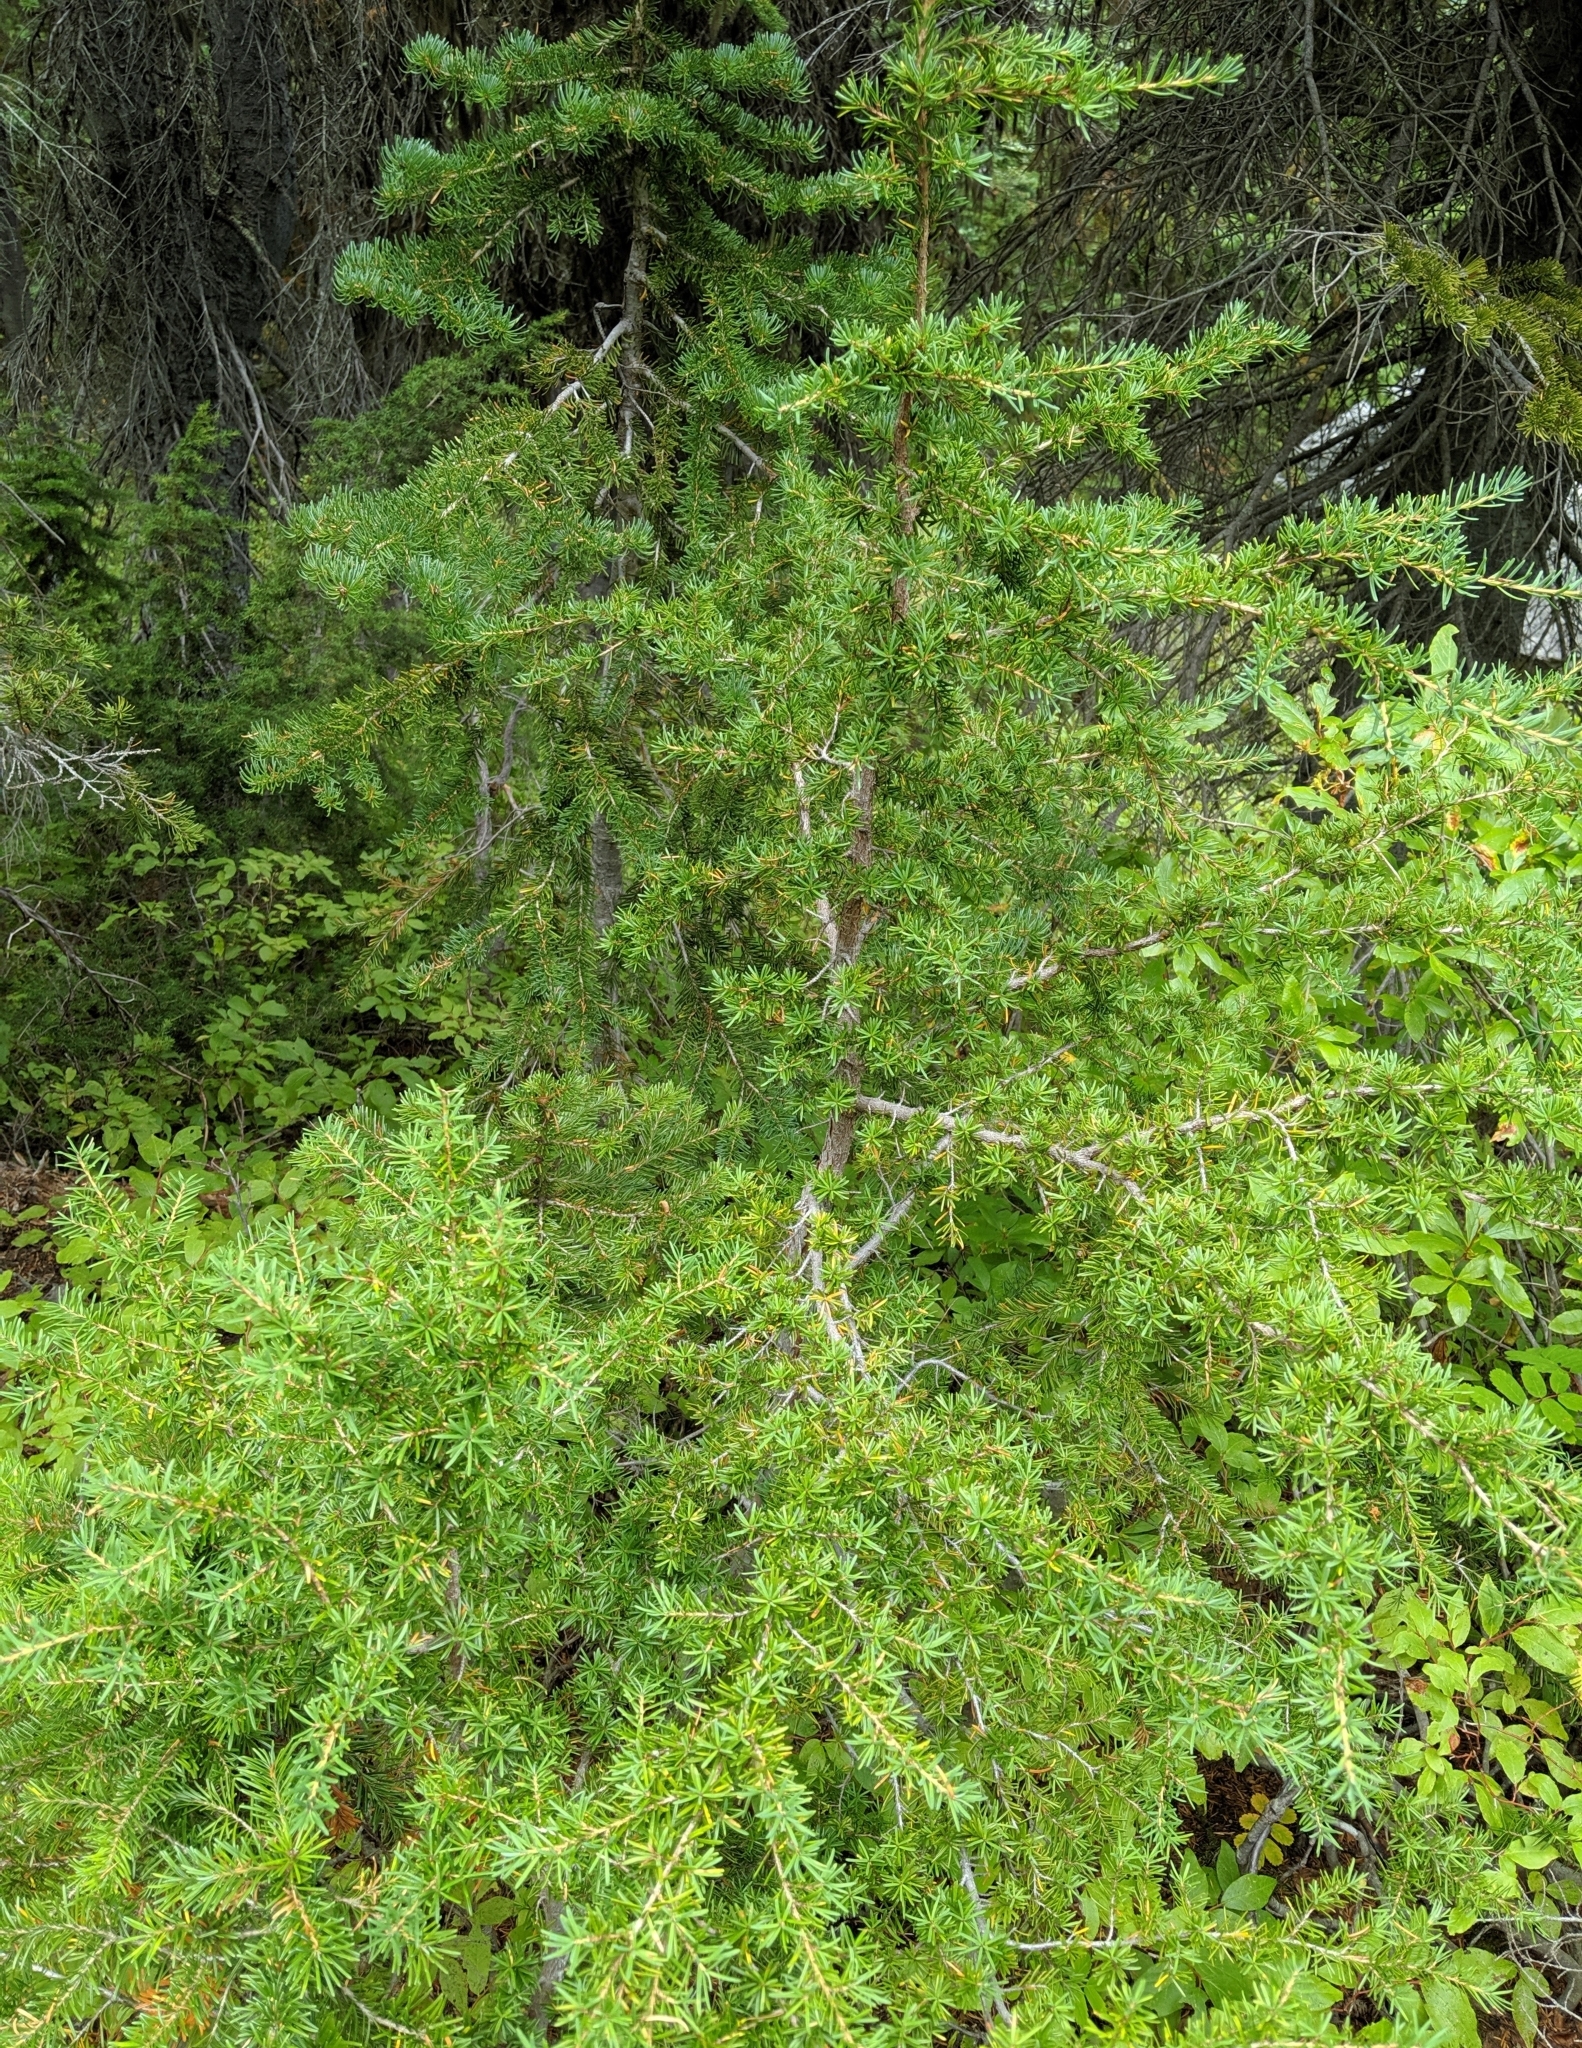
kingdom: Plantae
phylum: Tracheophyta
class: Pinopsida
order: Pinales
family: Pinaceae
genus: Tsuga
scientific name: Tsuga mertensiana
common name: Mountain hemlock
